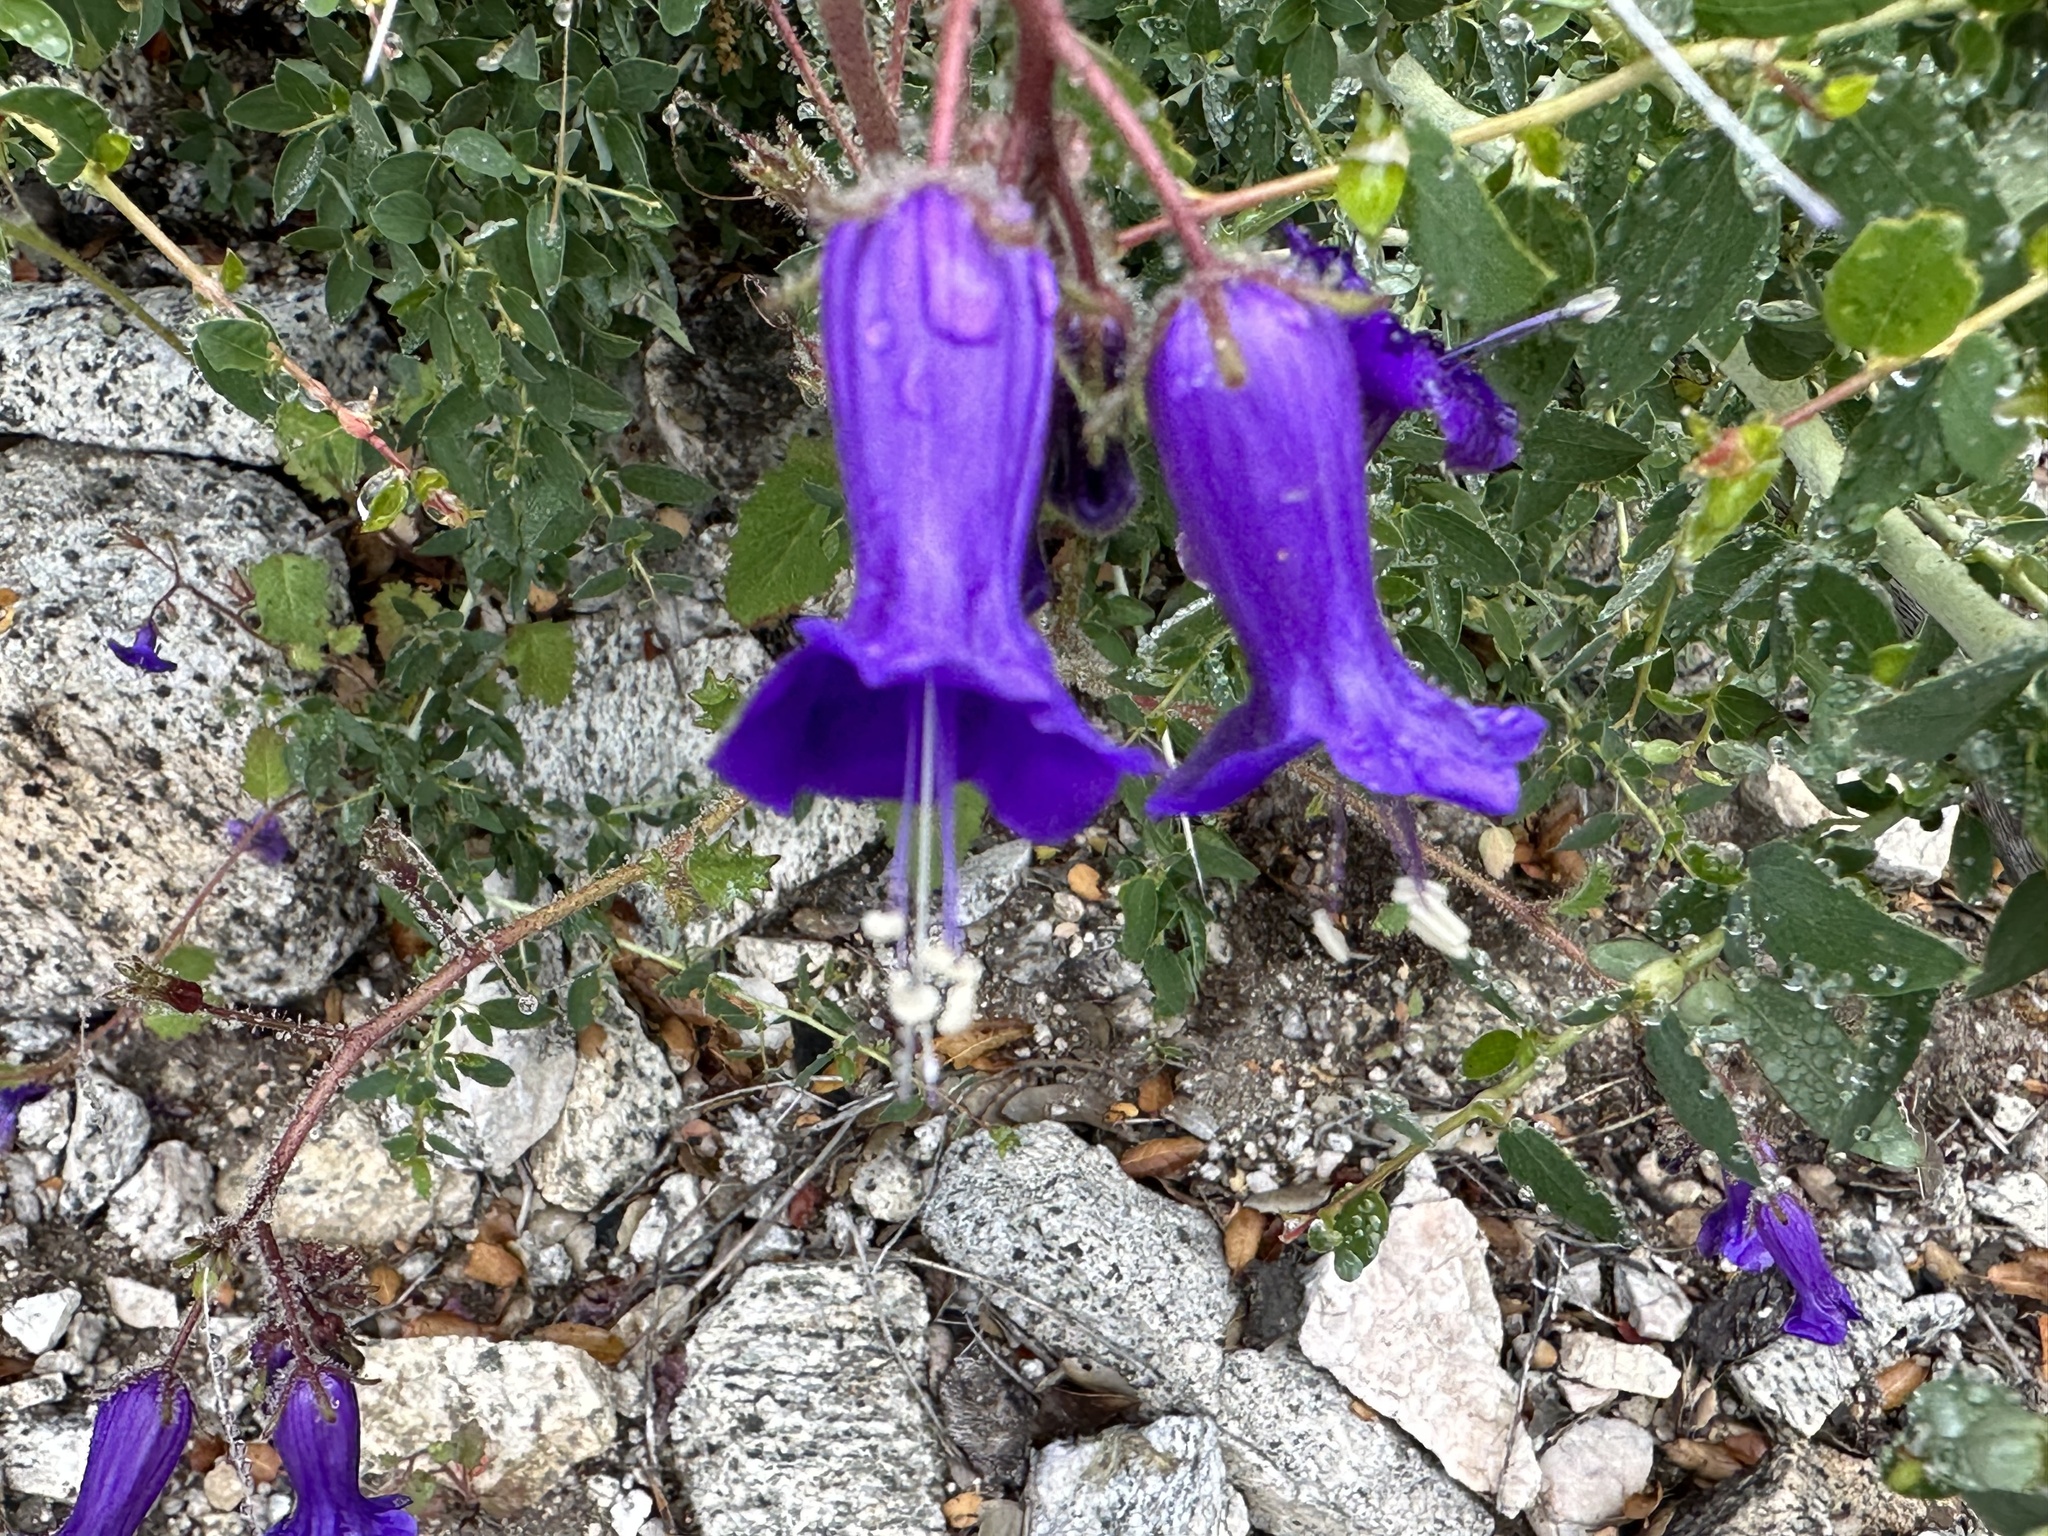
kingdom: Plantae
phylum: Tracheophyta
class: Magnoliopsida
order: Boraginales
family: Hydrophyllaceae
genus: Phacelia
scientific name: Phacelia minor
